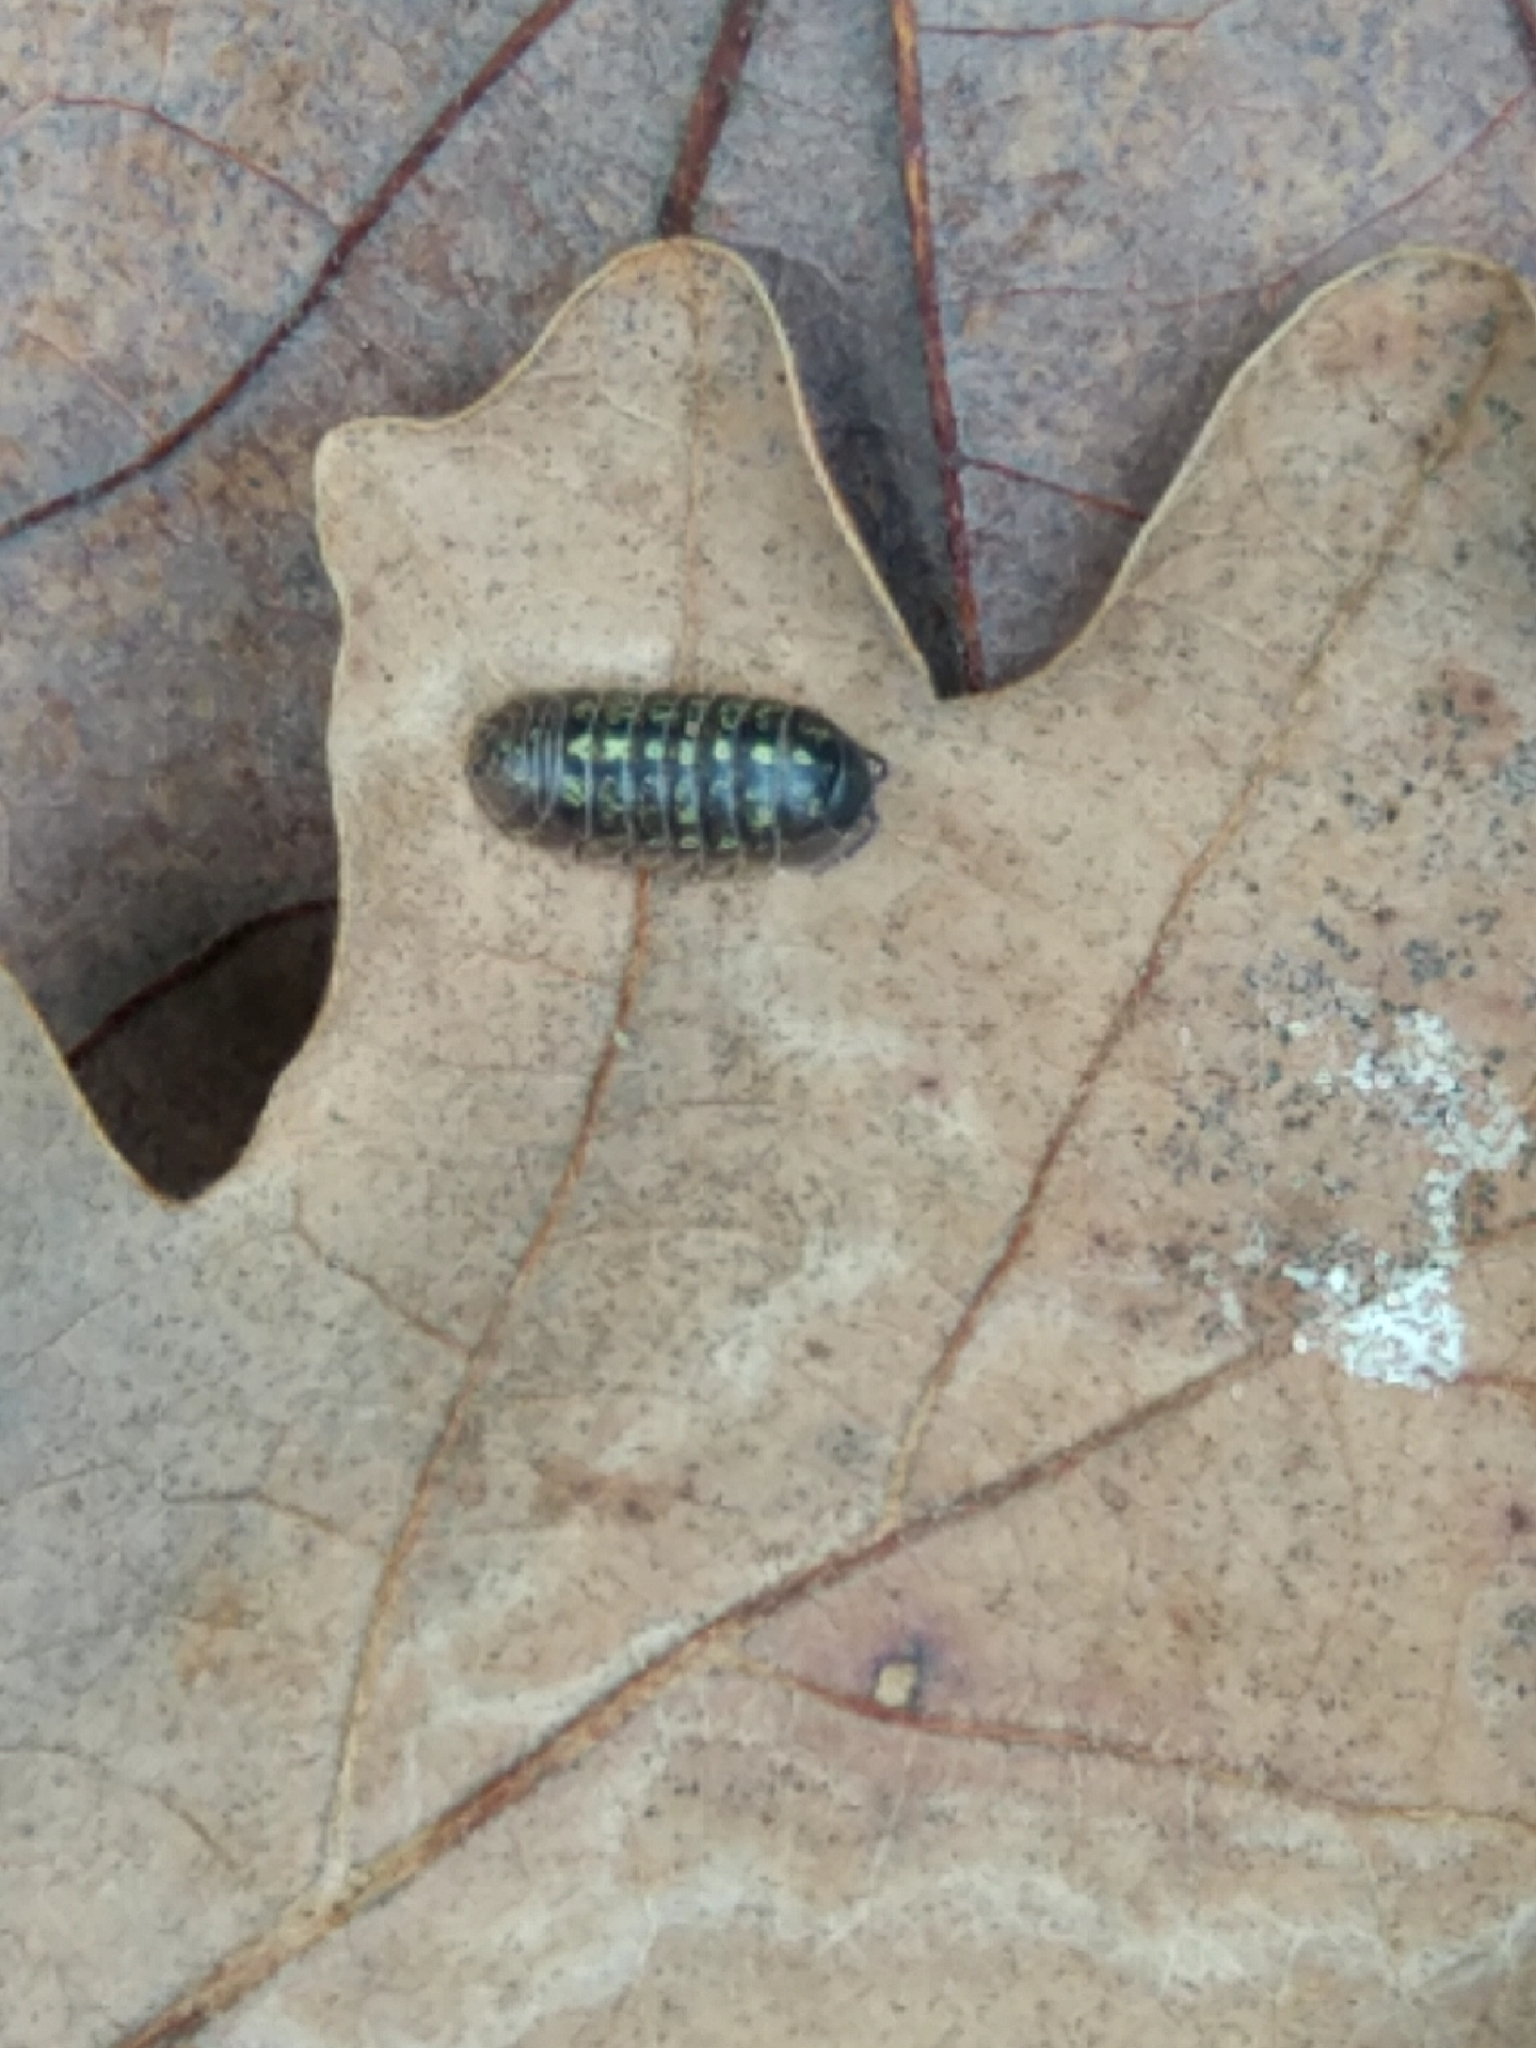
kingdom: Animalia
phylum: Arthropoda
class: Malacostraca
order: Isopoda
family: Armadillidiidae
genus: Armadillidium
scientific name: Armadillidium vulgare
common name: Common pill woodlouse
